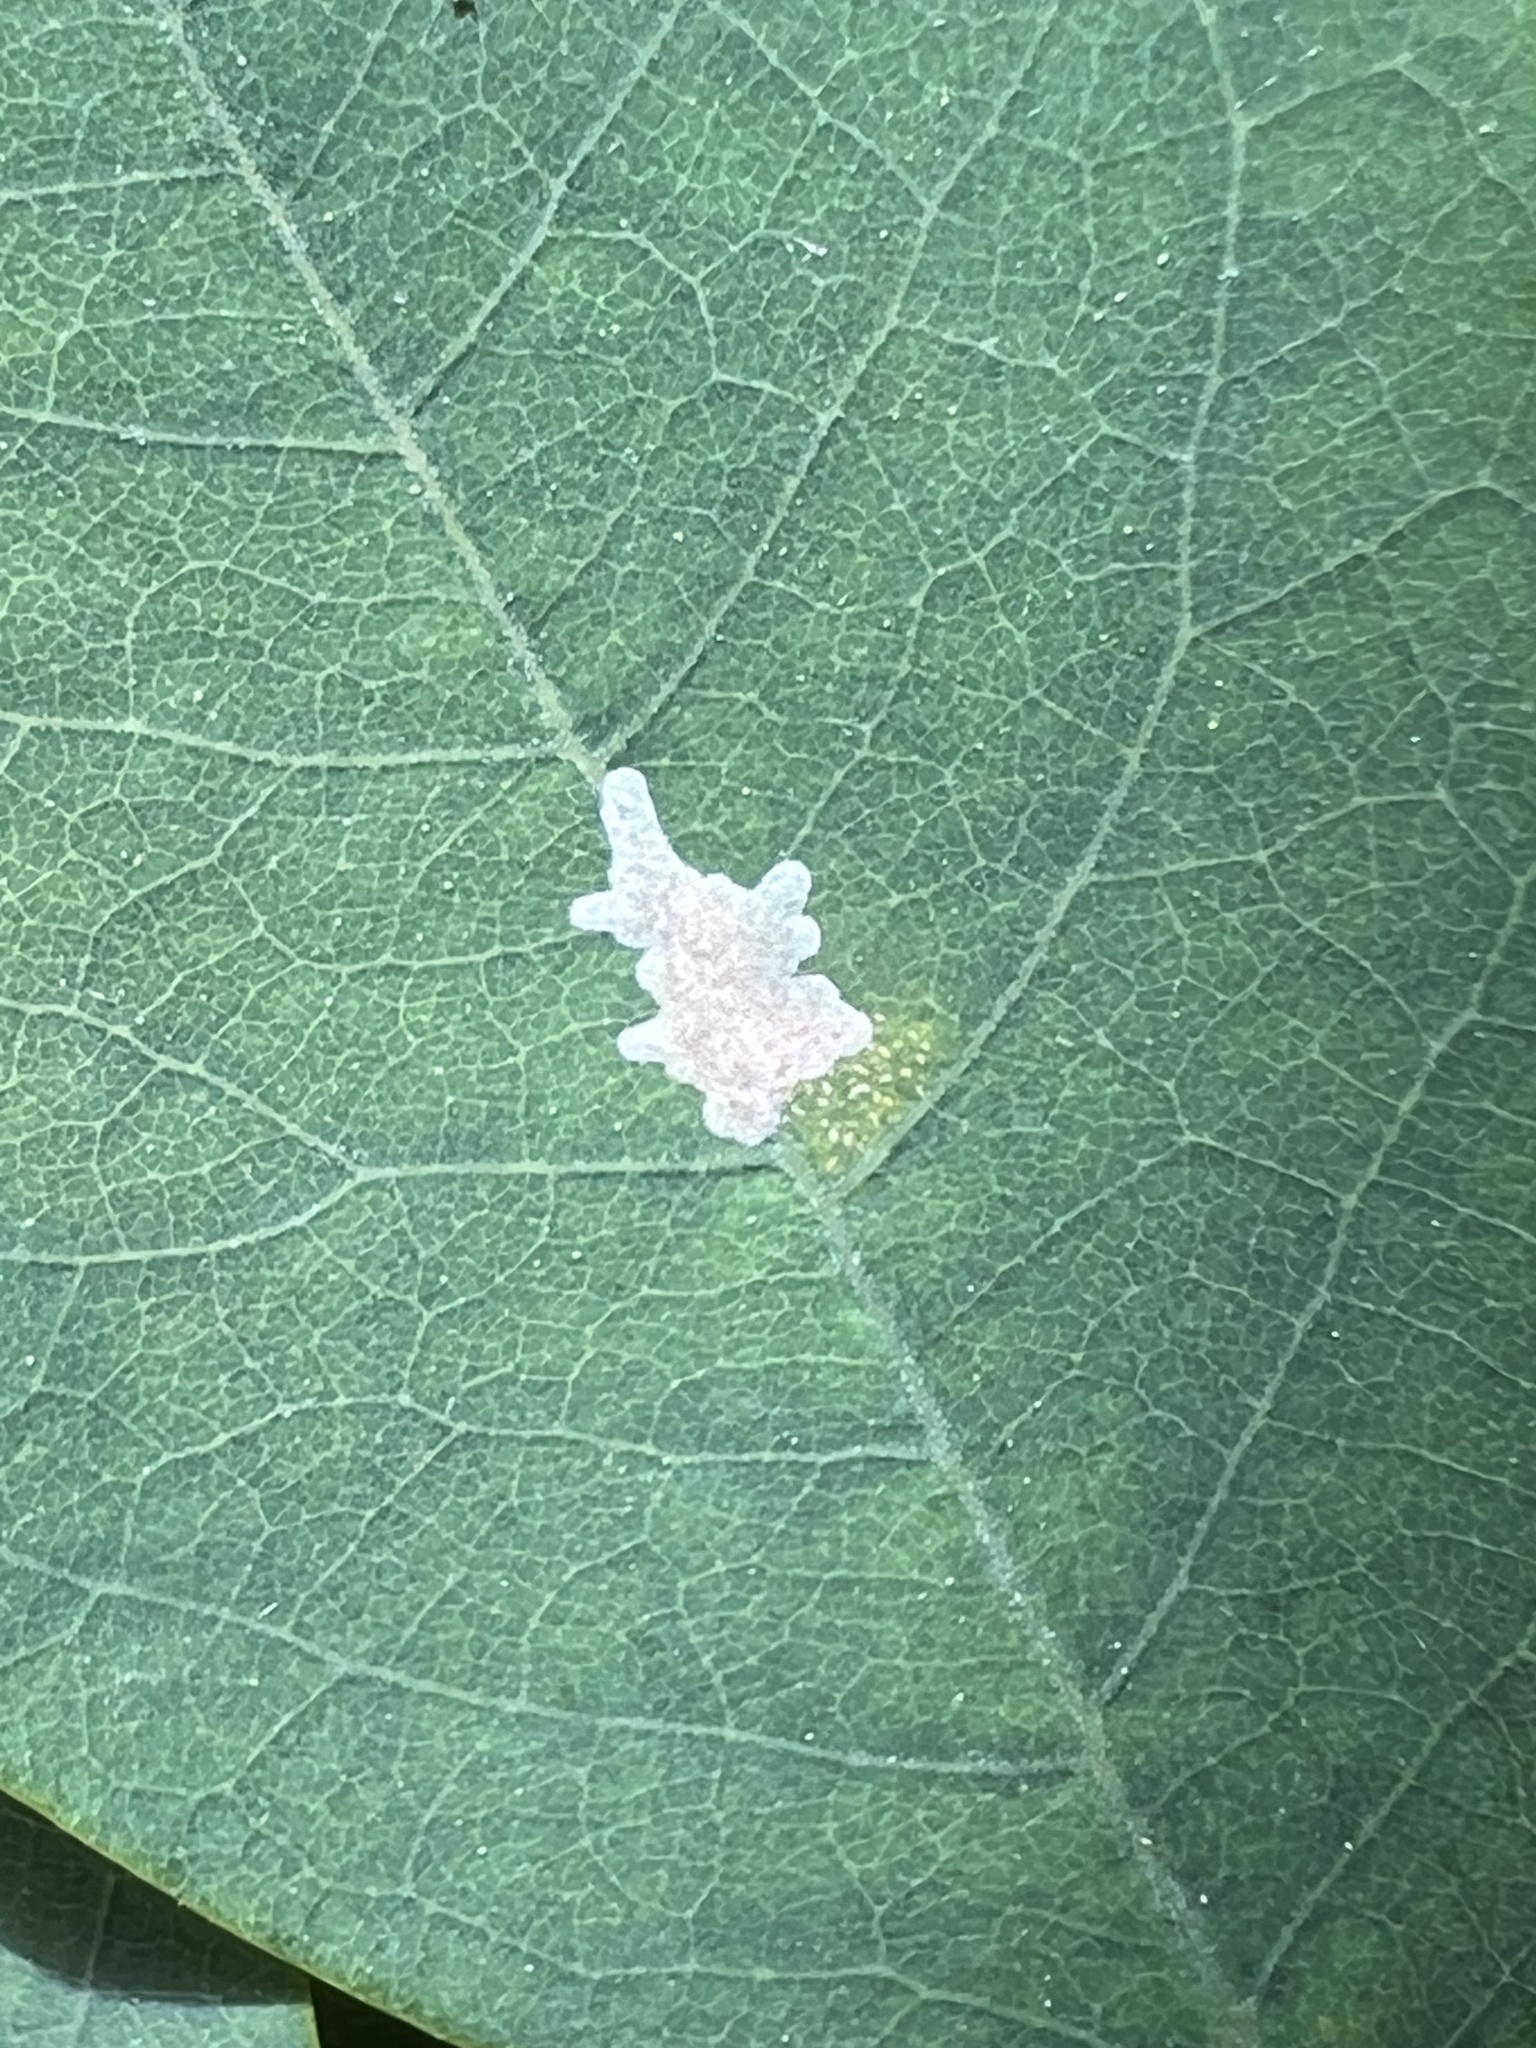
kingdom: Animalia
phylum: Arthropoda
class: Insecta
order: Lepidoptera
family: Gracillariidae
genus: Parectopa
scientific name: Parectopa robiniella
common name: Locust digitate leafminer
